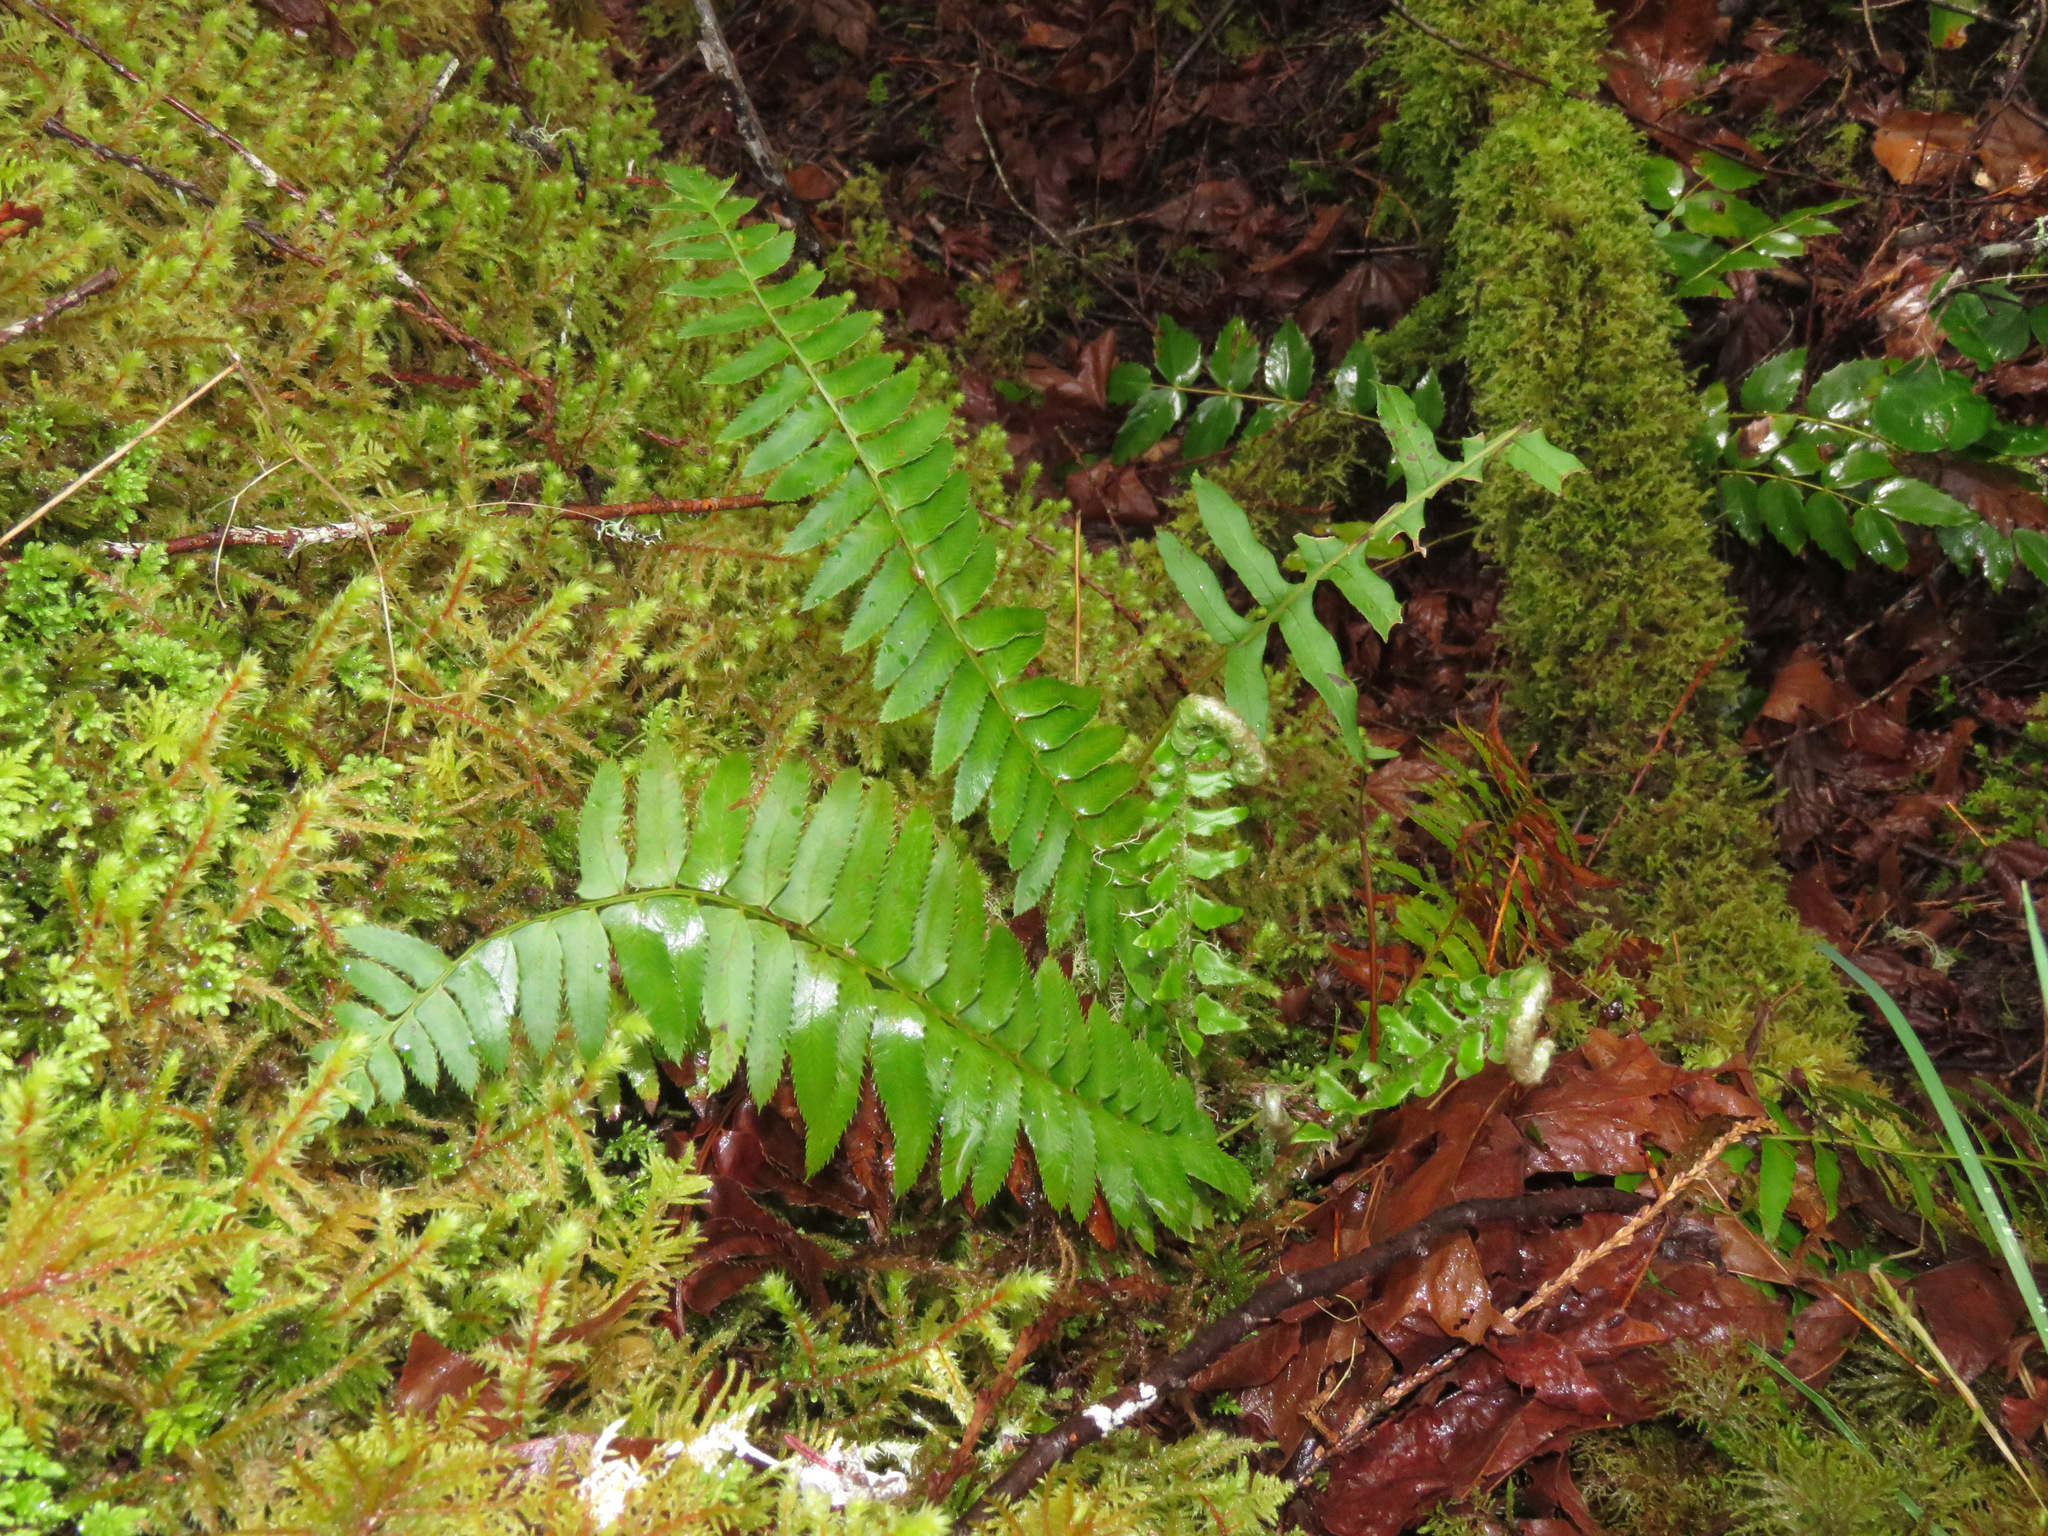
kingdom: Plantae
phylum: Tracheophyta
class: Polypodiopsida
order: Polypodiales
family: Dryopteridaceae
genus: Polystichum
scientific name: Polystichum munitum
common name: Western sword-fern
